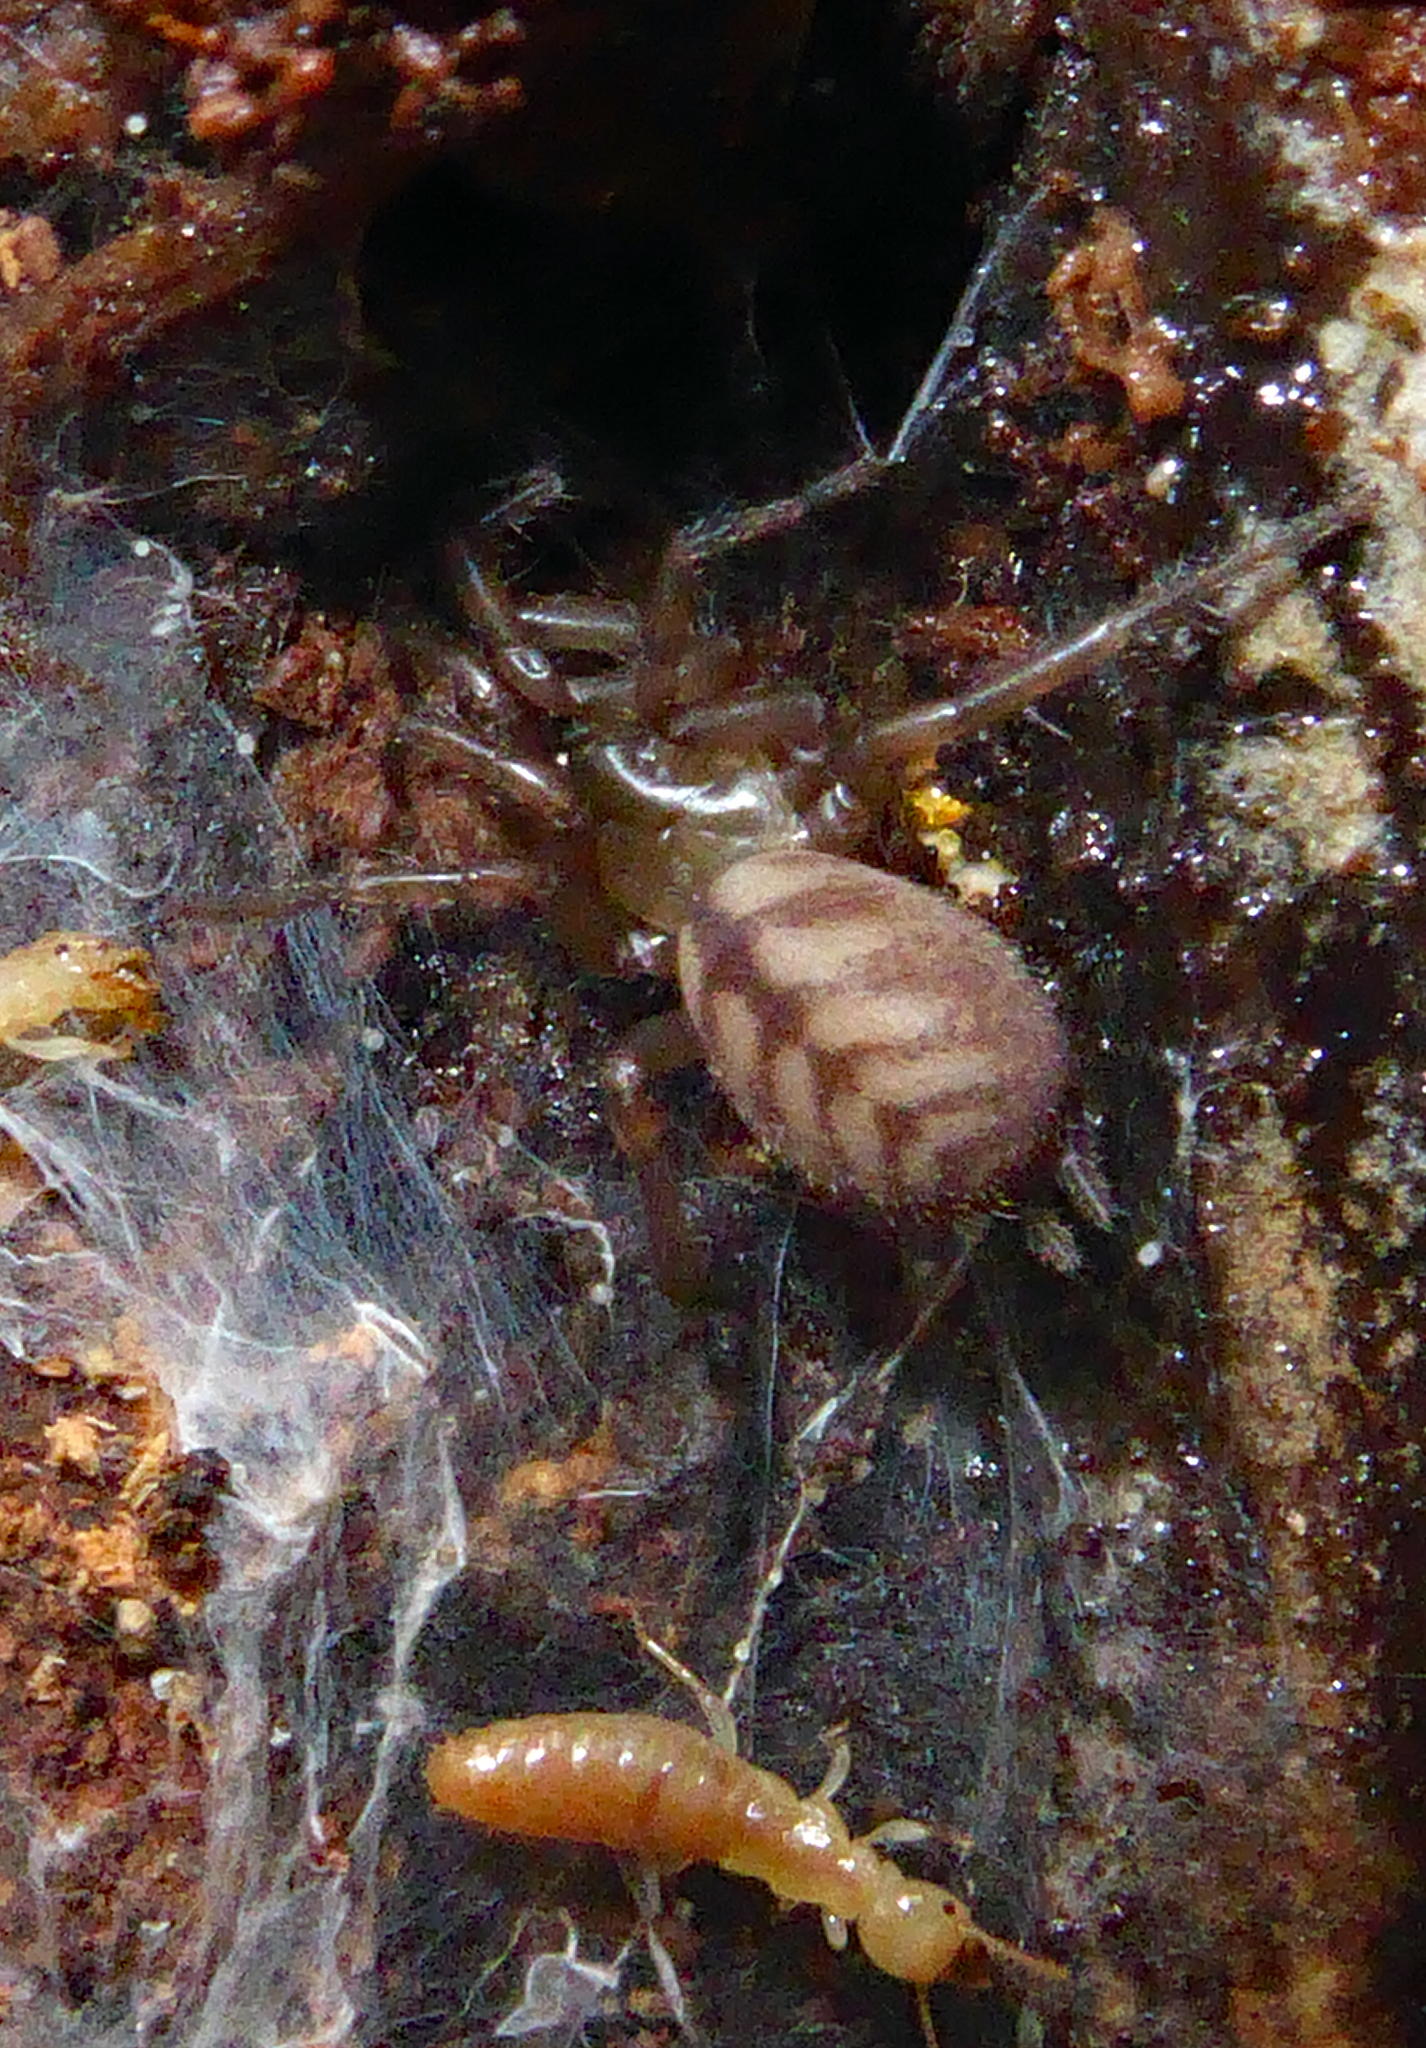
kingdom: Animalia
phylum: Arthropoda
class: Arachnida
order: Araneae
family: Hexathelidae
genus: Hexathele
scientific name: Hexathele hochstetteri
